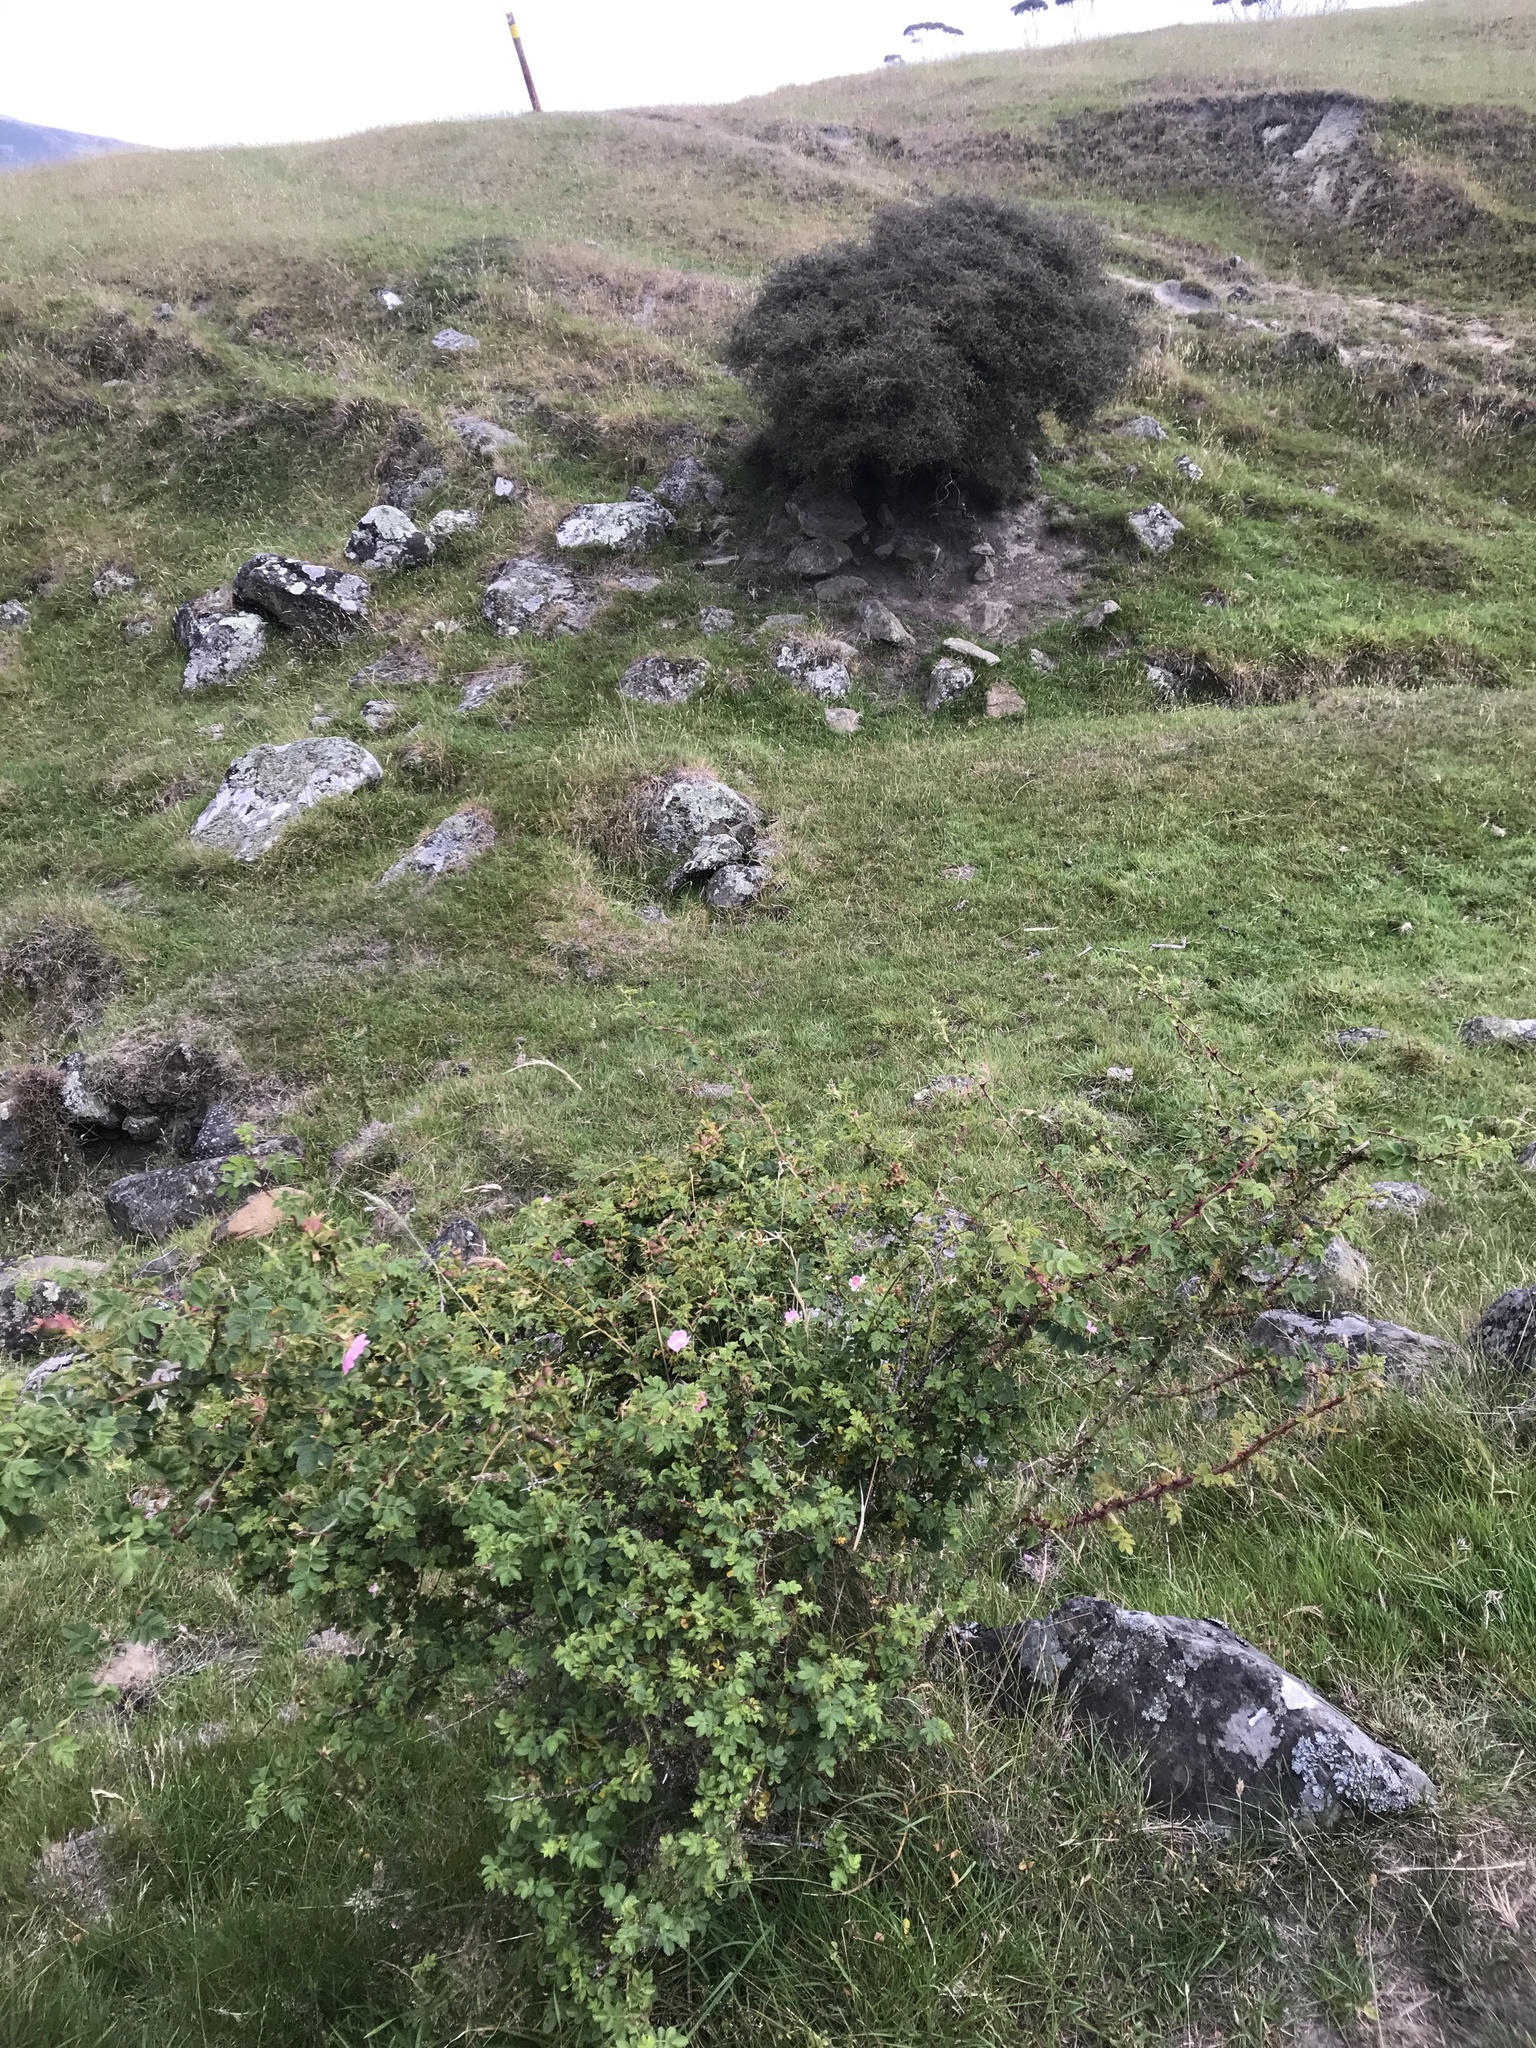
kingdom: Plantae
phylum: Tracheophyta
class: Magnoliopsida
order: Rosales
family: Rosaceae
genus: Rosa
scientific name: Rosa rubiginosa
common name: Sweet-briar
